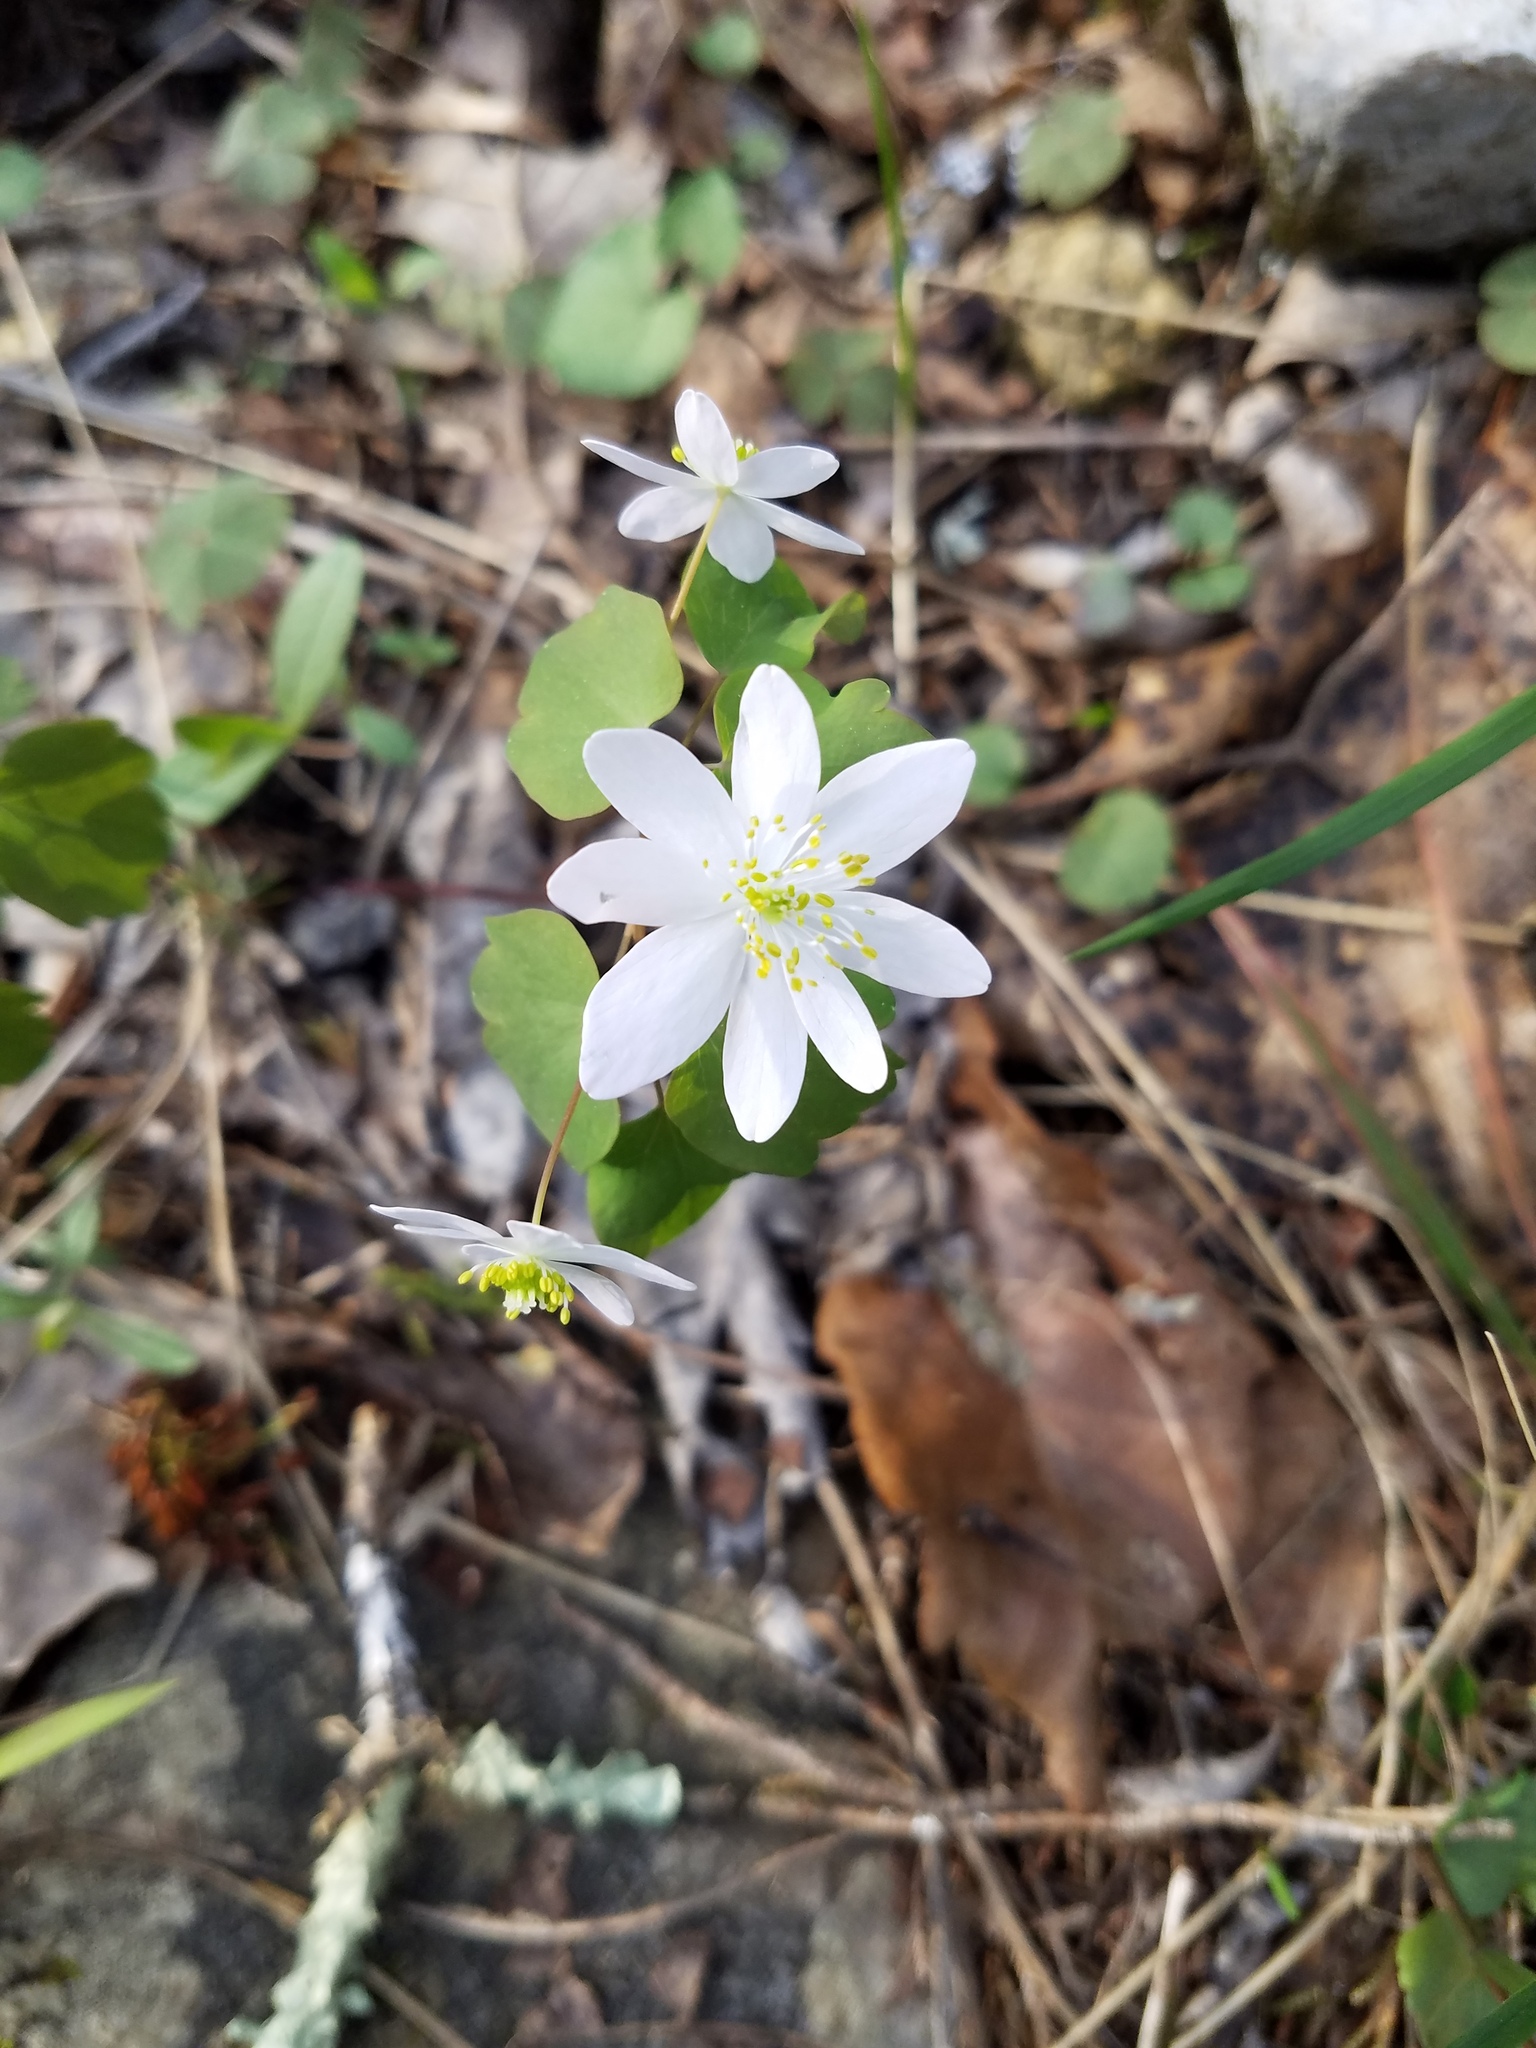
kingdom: Plantae
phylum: Tracheophyta
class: Magnoliopsida
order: Ranunculales
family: Ranunculaceae
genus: Thalictrum
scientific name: Thalictrum thalictroides
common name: Rue-anemone
